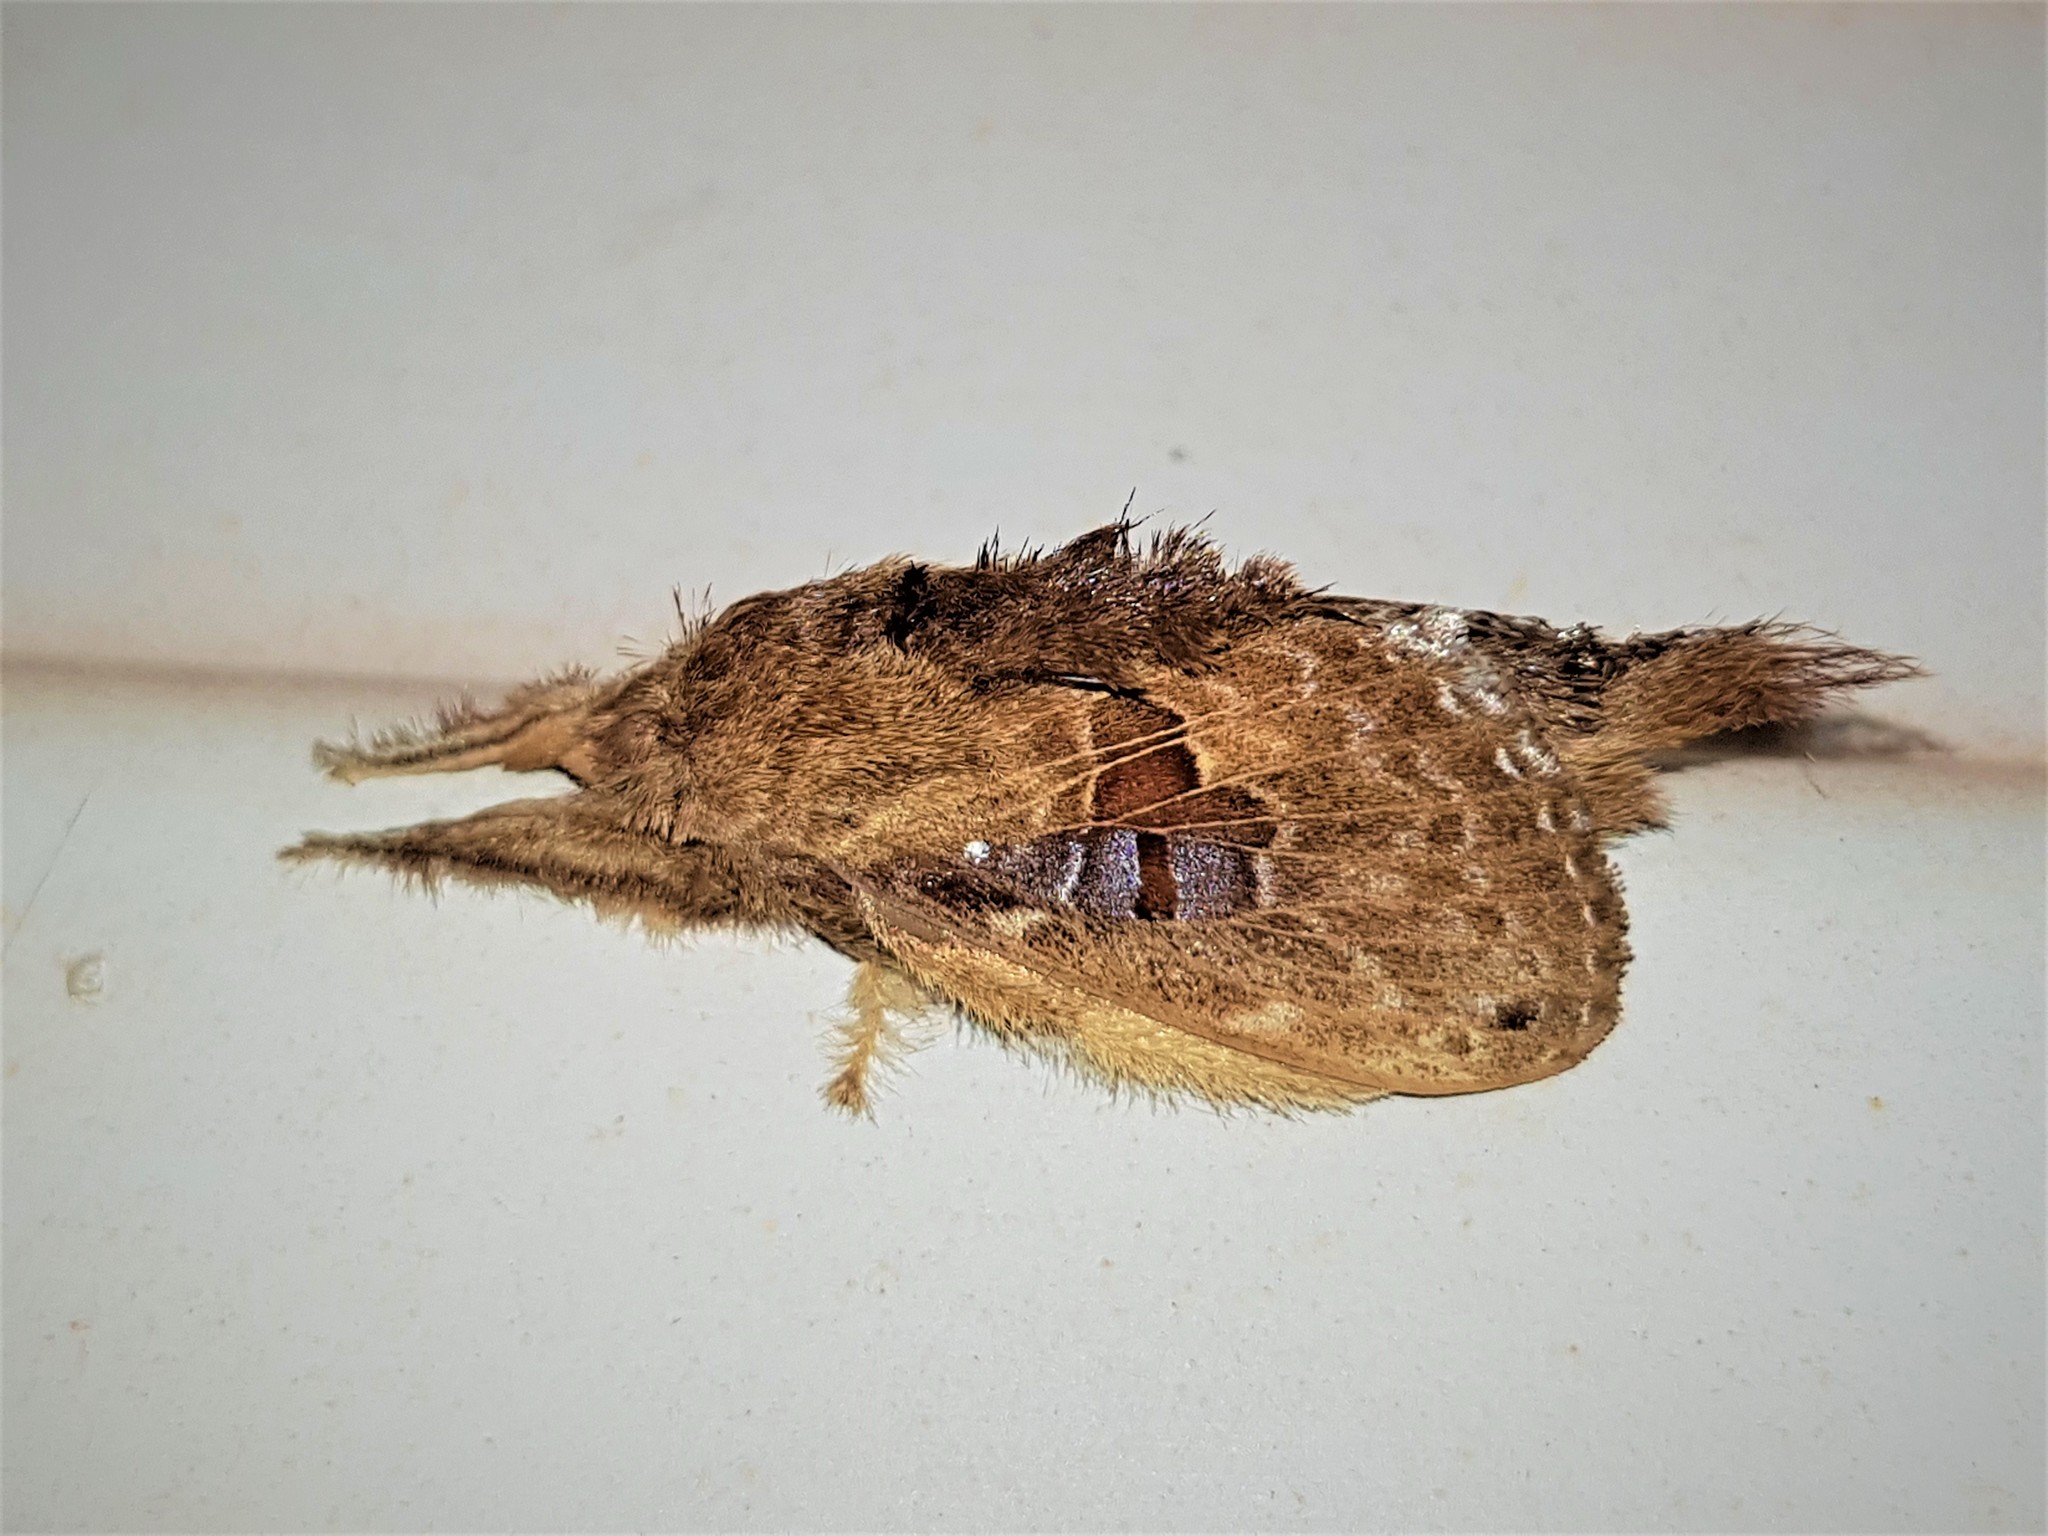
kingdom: Animalia
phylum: Arthropoda
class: Insecta
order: Lepidoptera
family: Lasiocampidae
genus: Euglyphis
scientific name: Euglyphis amazonica
